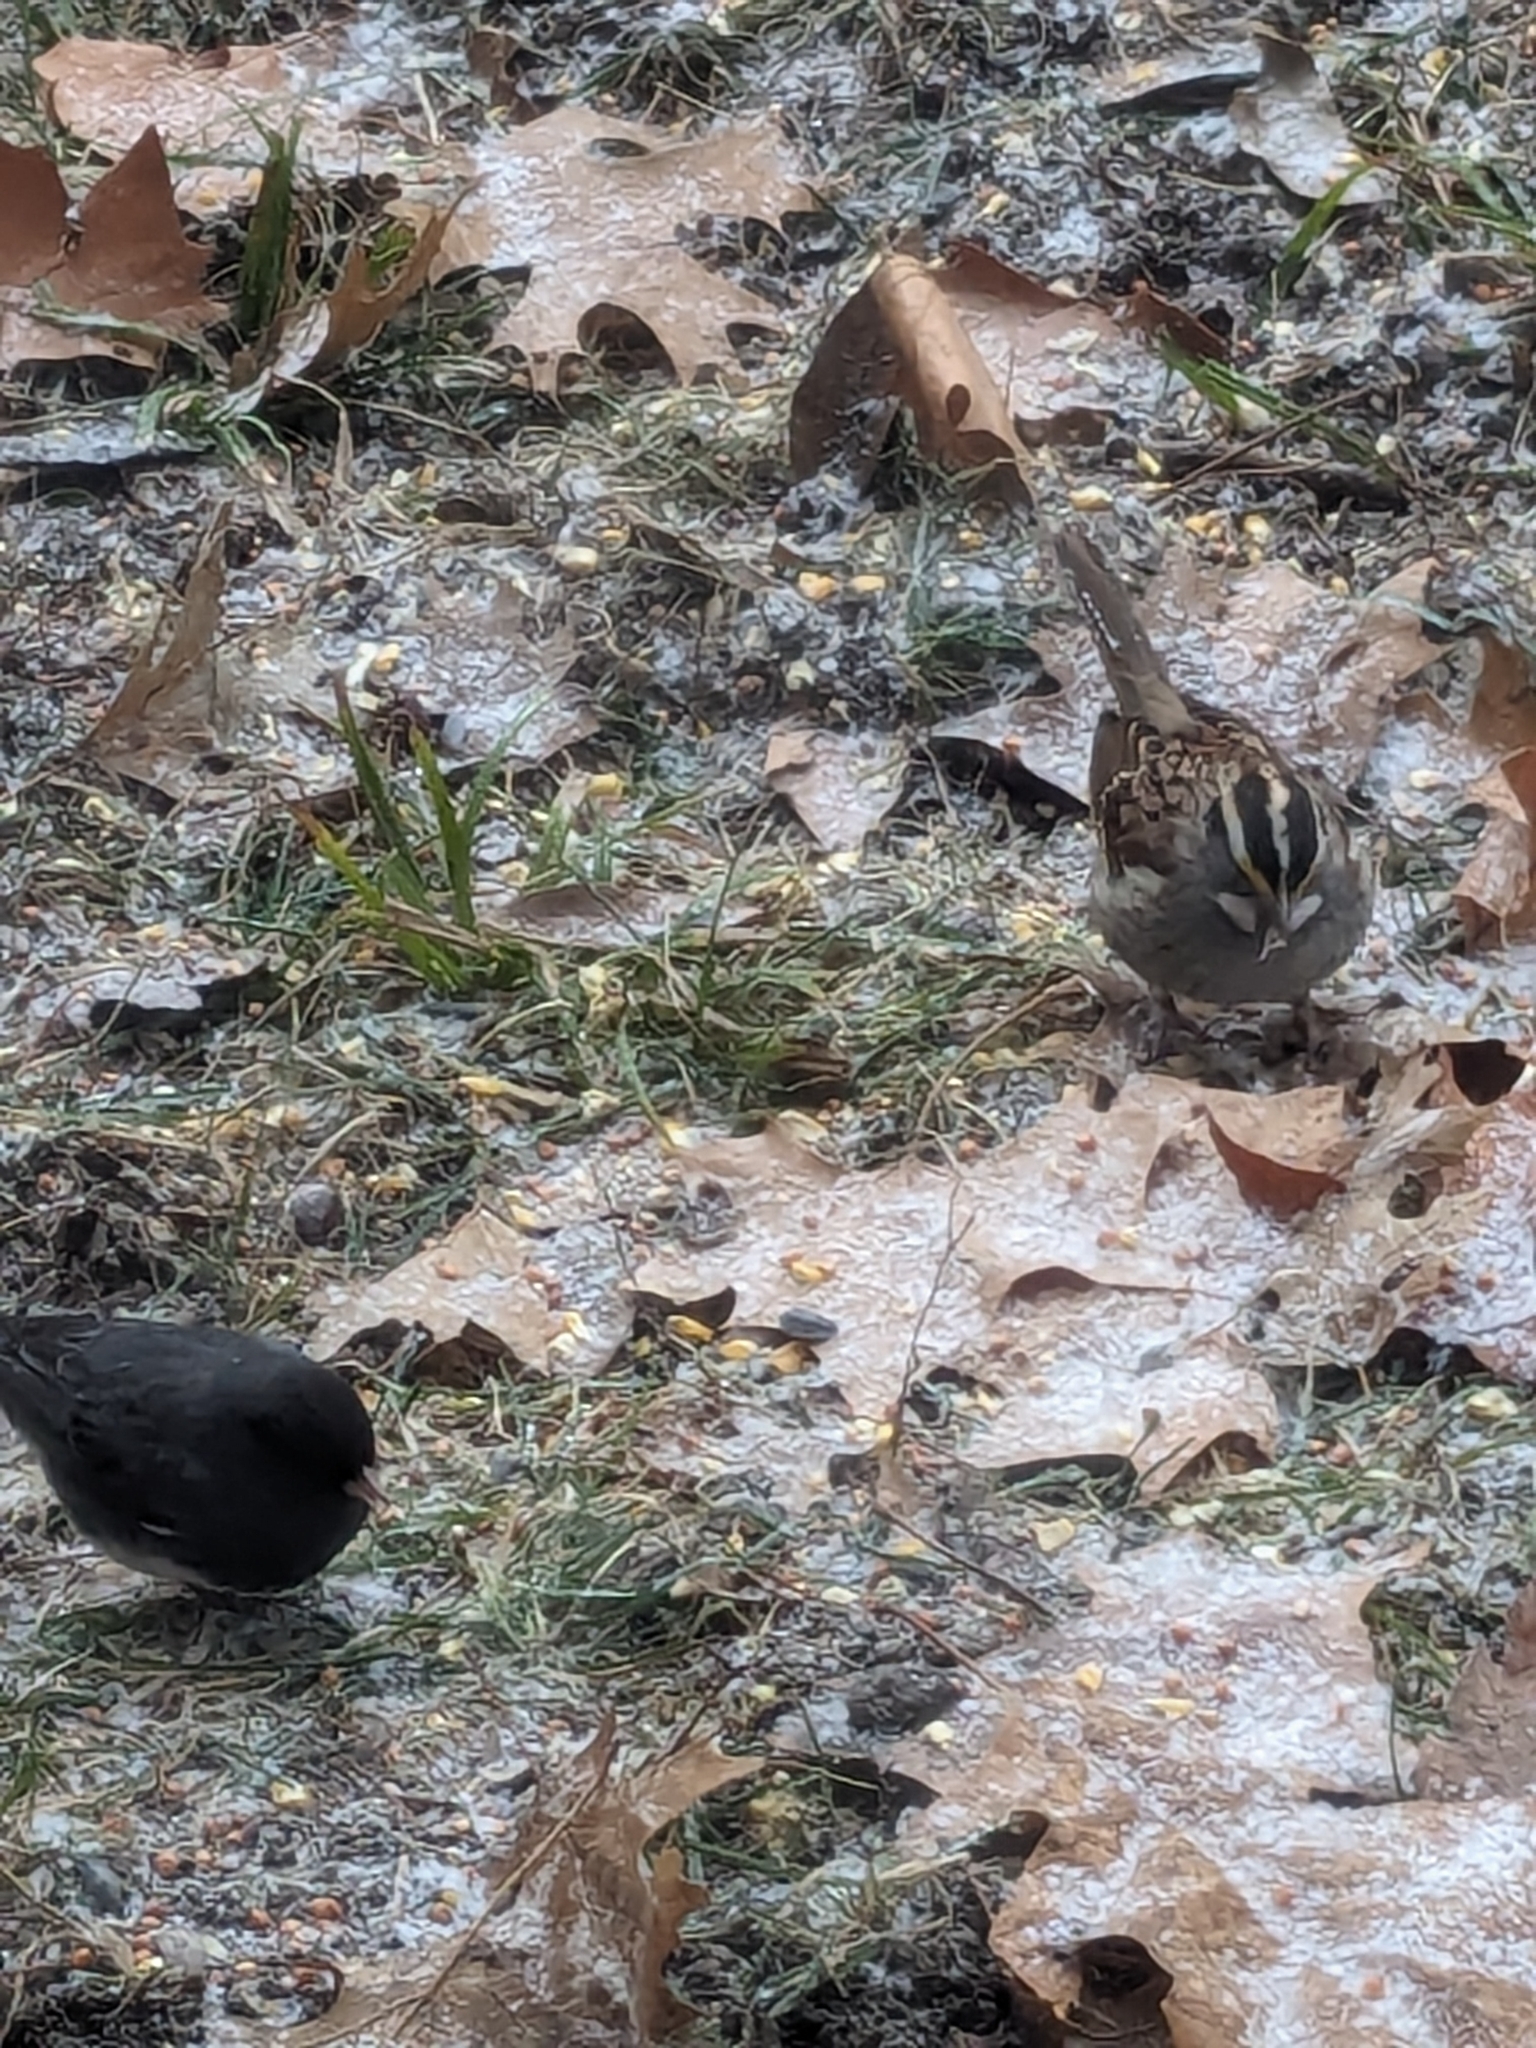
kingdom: Animalia
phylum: Chordata
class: Aves
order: Passeriformes
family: Passerellidae
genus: Junco
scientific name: Junco hyemalis
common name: Dark-eyed junco
